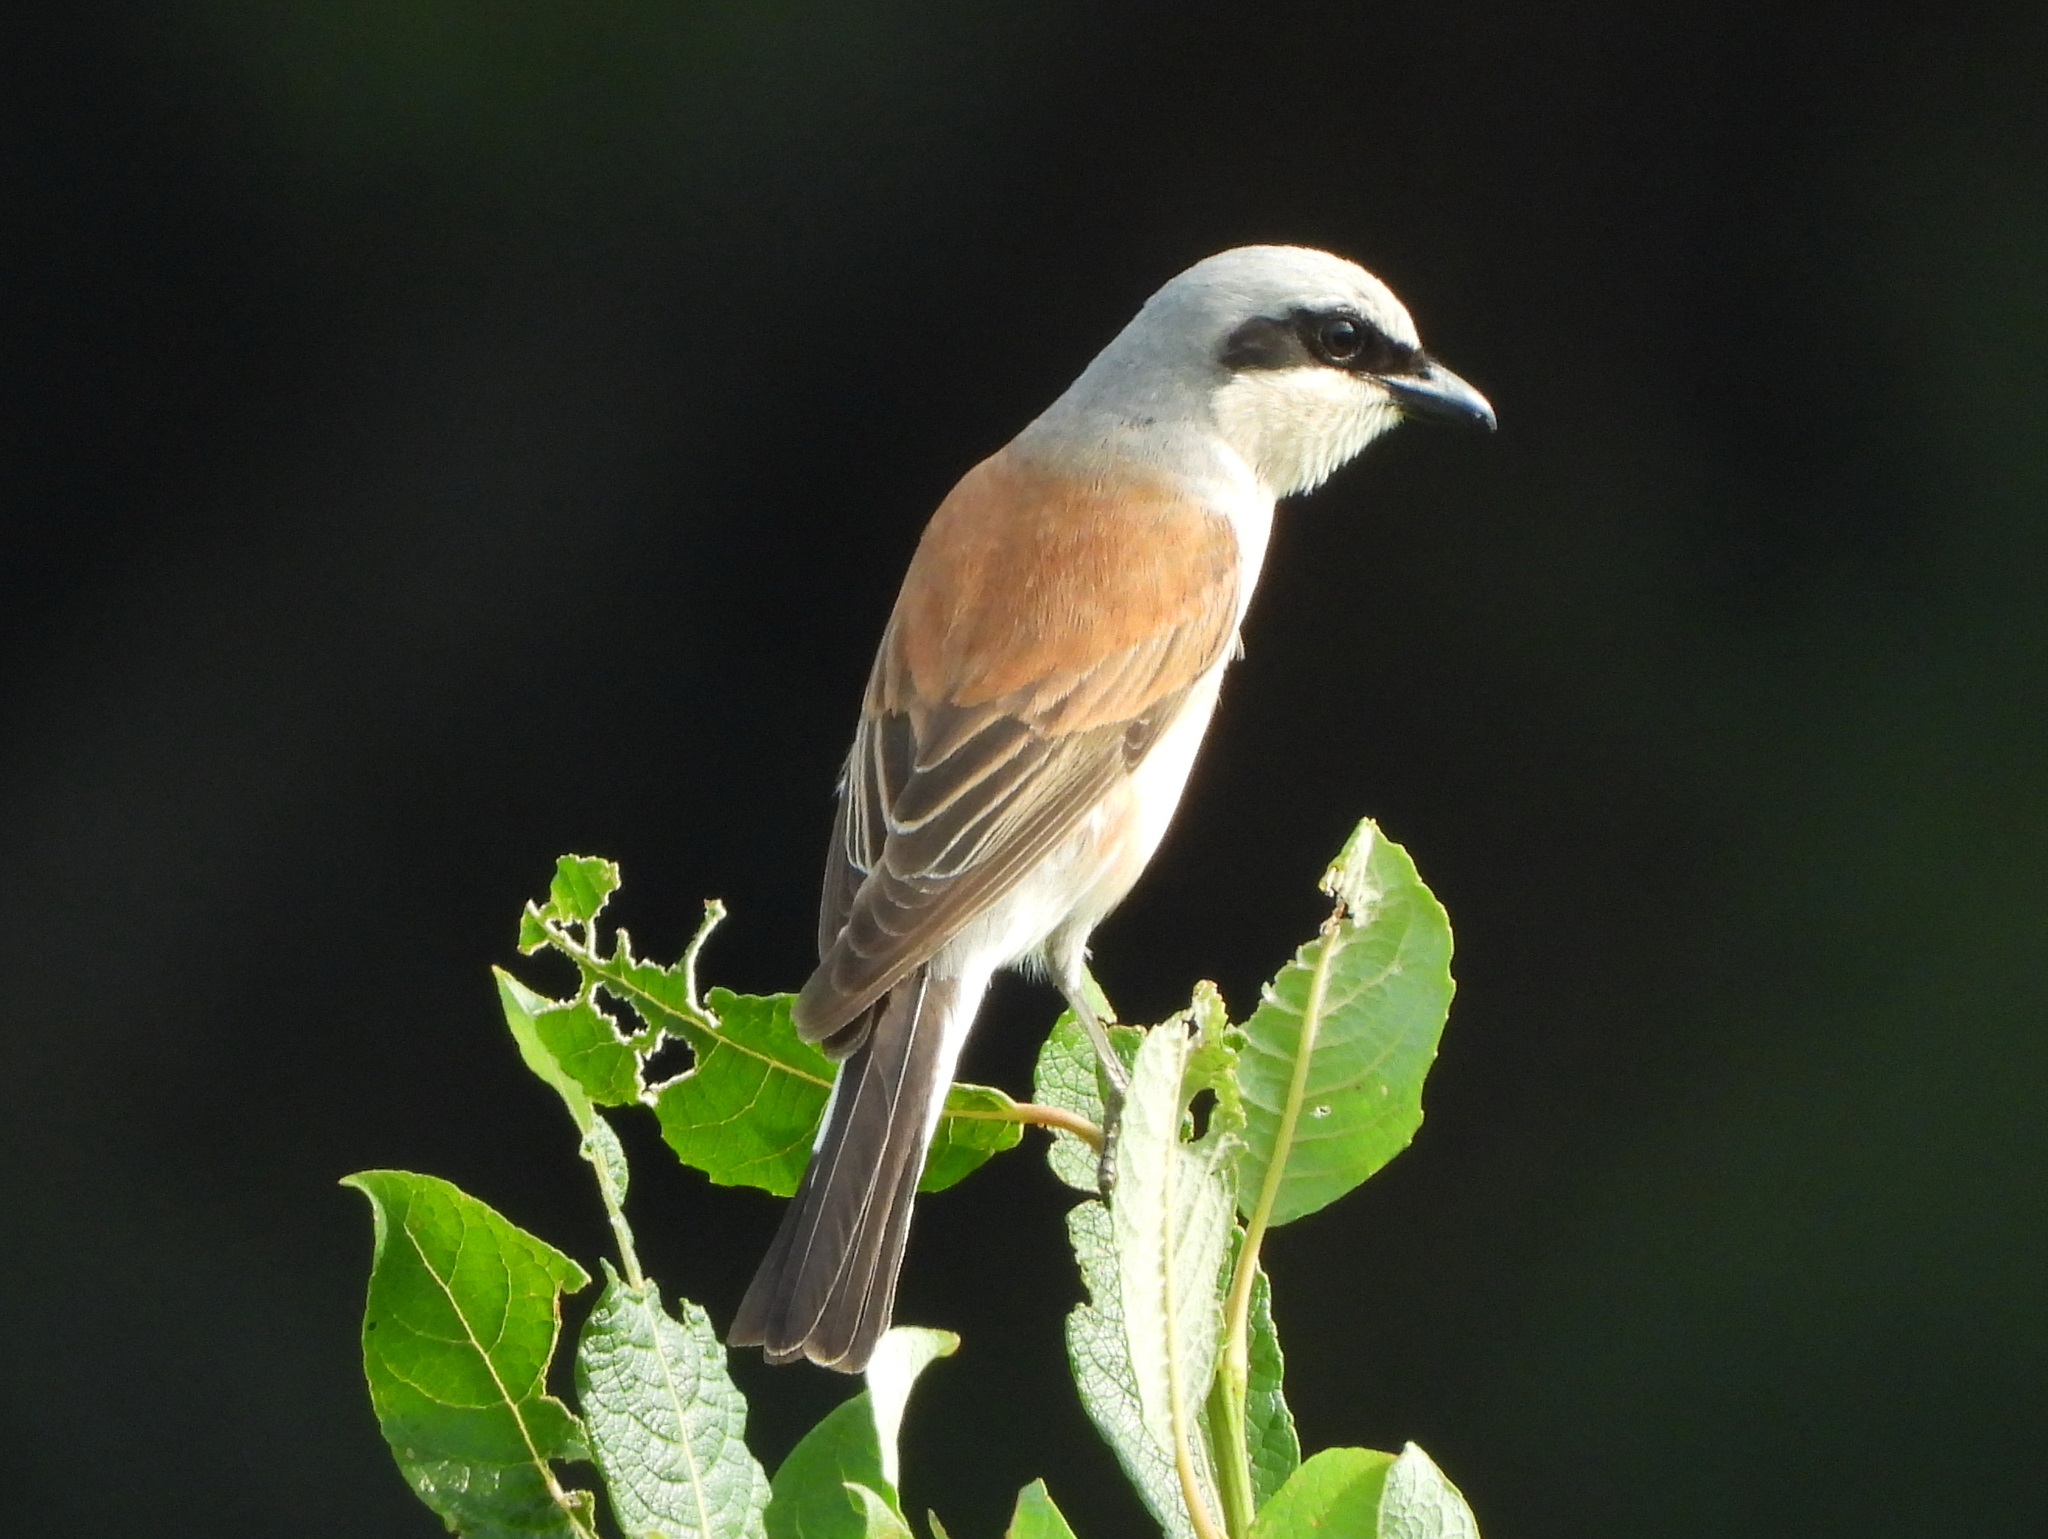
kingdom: Animalia
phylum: Chordata
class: Aves
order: Passeriformes
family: Laniidae
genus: Lanius
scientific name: Lanius collurio
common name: Red-backed shrike
